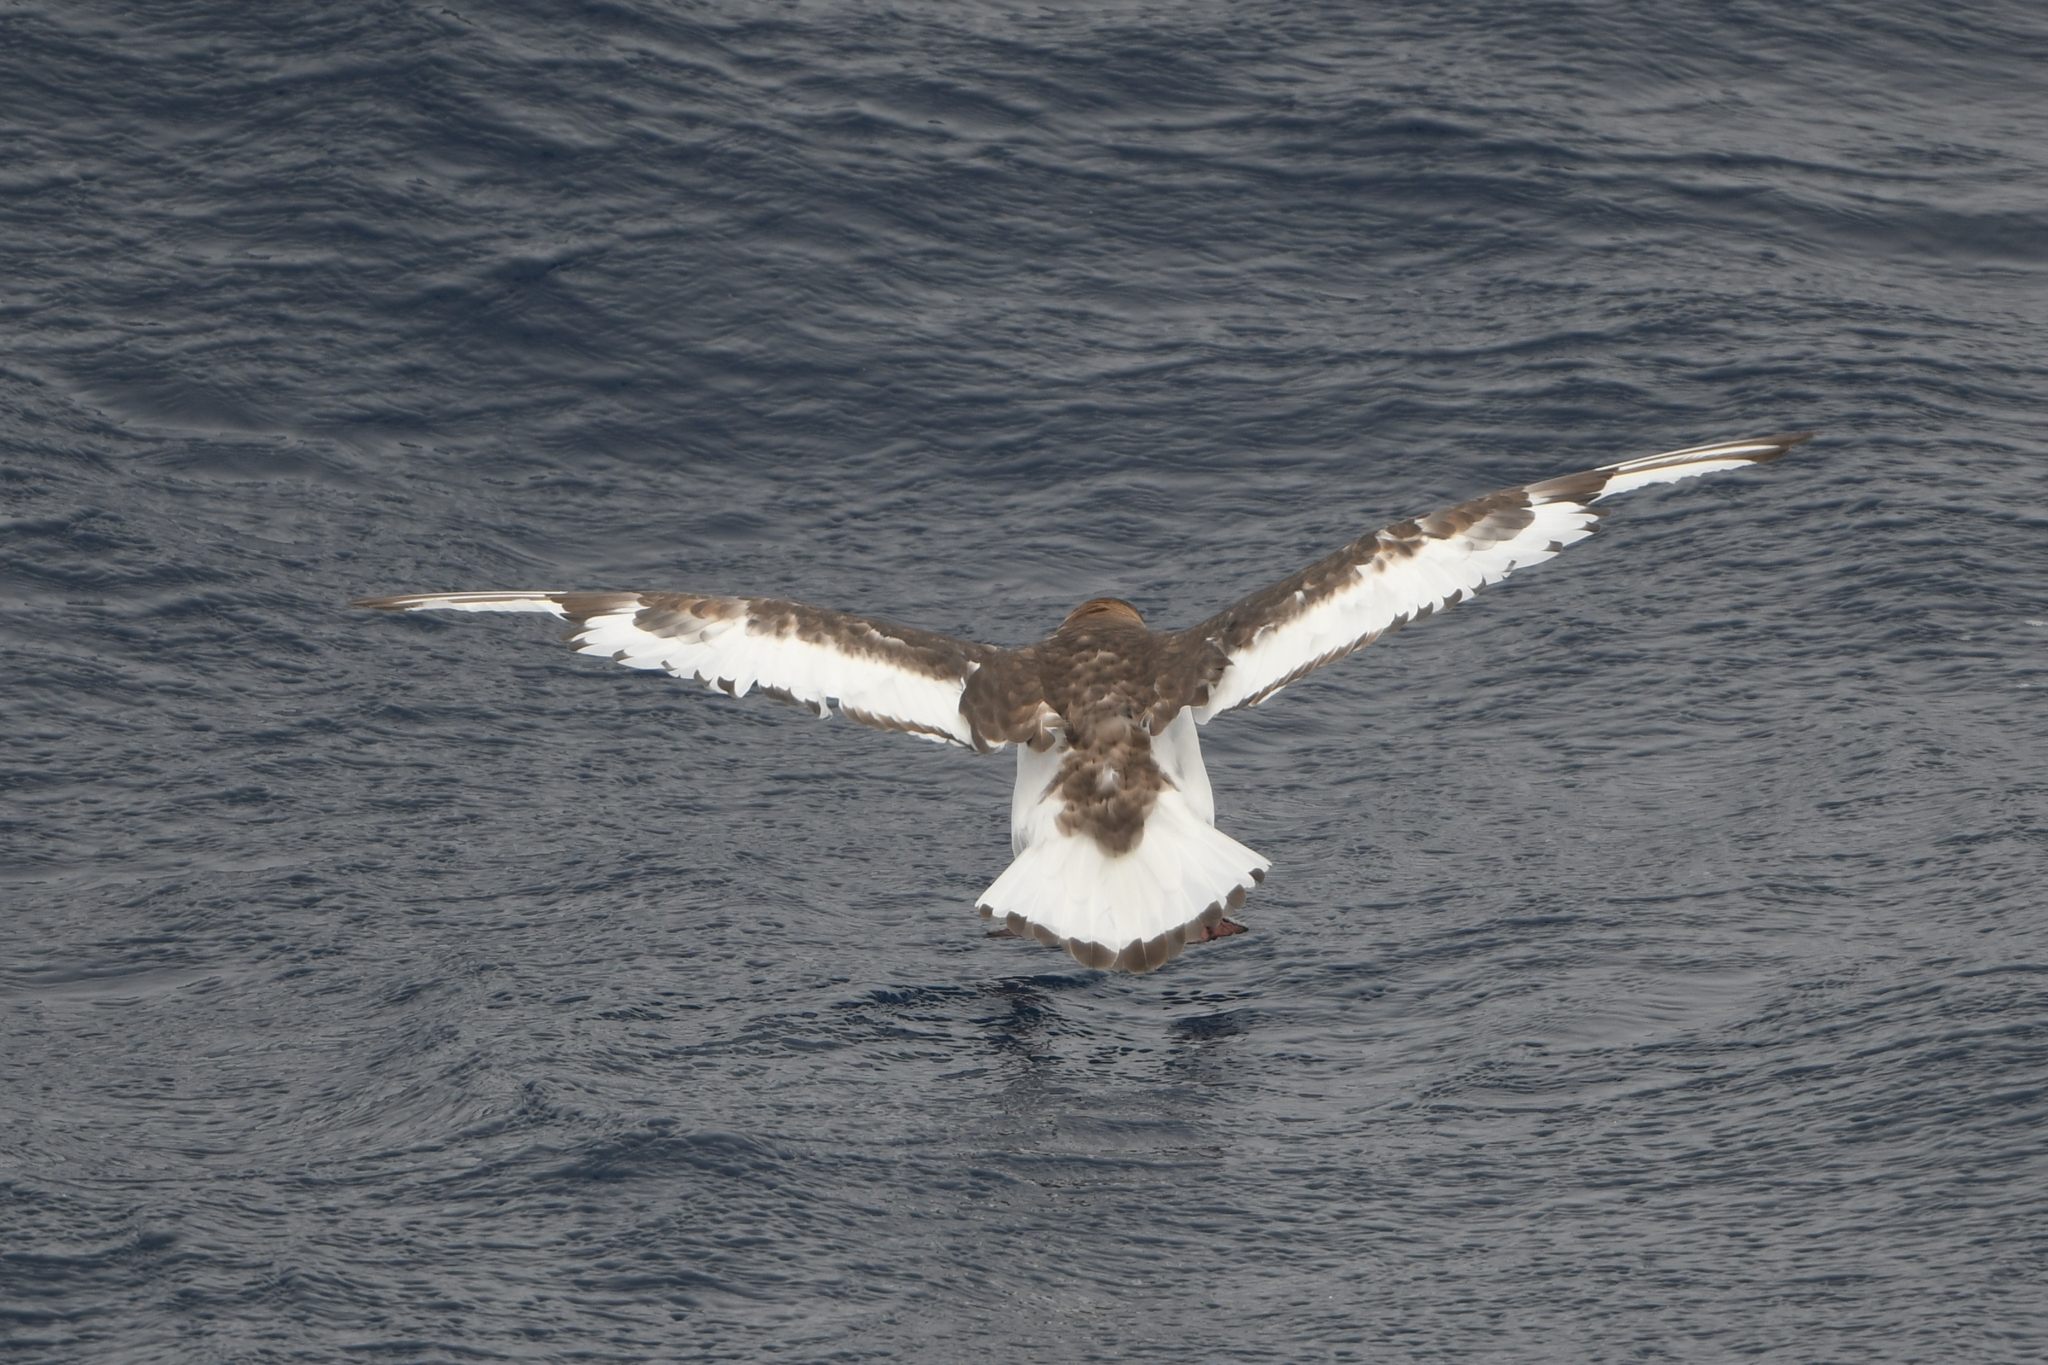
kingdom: Animalia
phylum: Chordata
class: Aves
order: Procellariiformes
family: Procellariidae
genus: Thalassoica
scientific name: Thalassoica antarctica
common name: Antarctic petrel
